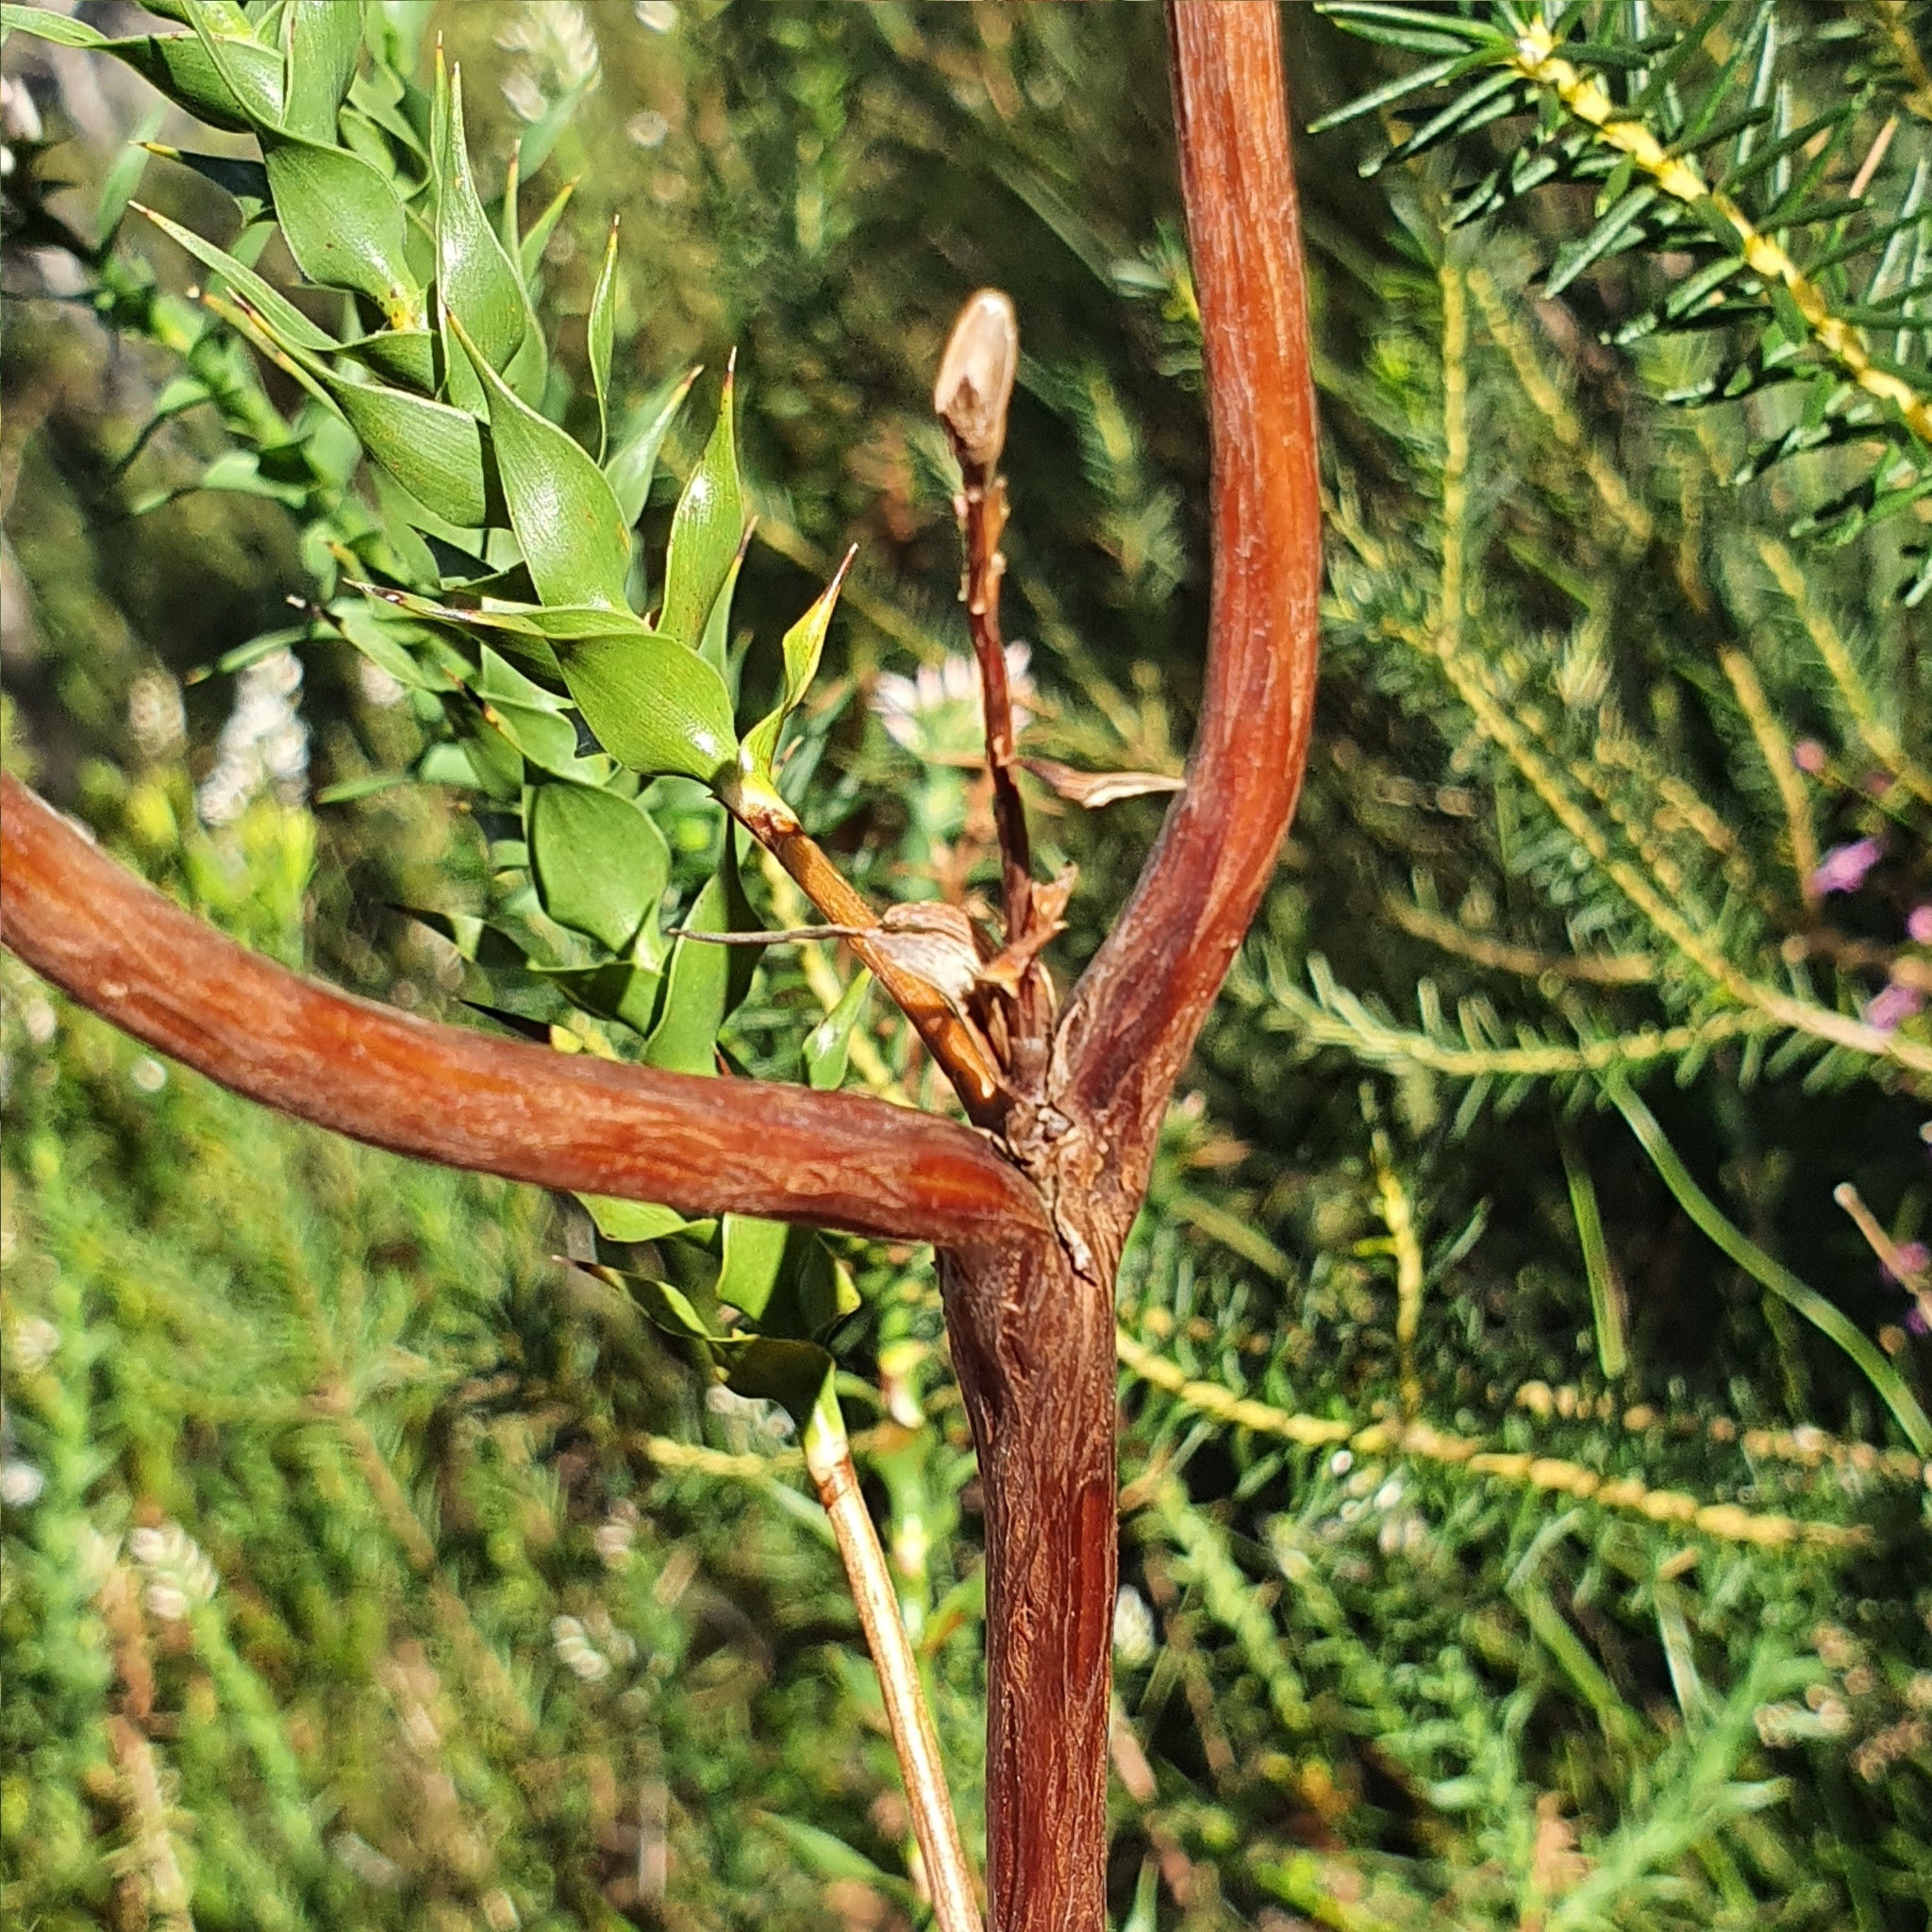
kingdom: Plantae
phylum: Tracheophyta
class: Magnoliopsida
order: Ericales
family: Ericaceae
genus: Sprengelia
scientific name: Sprengelia incarnata
